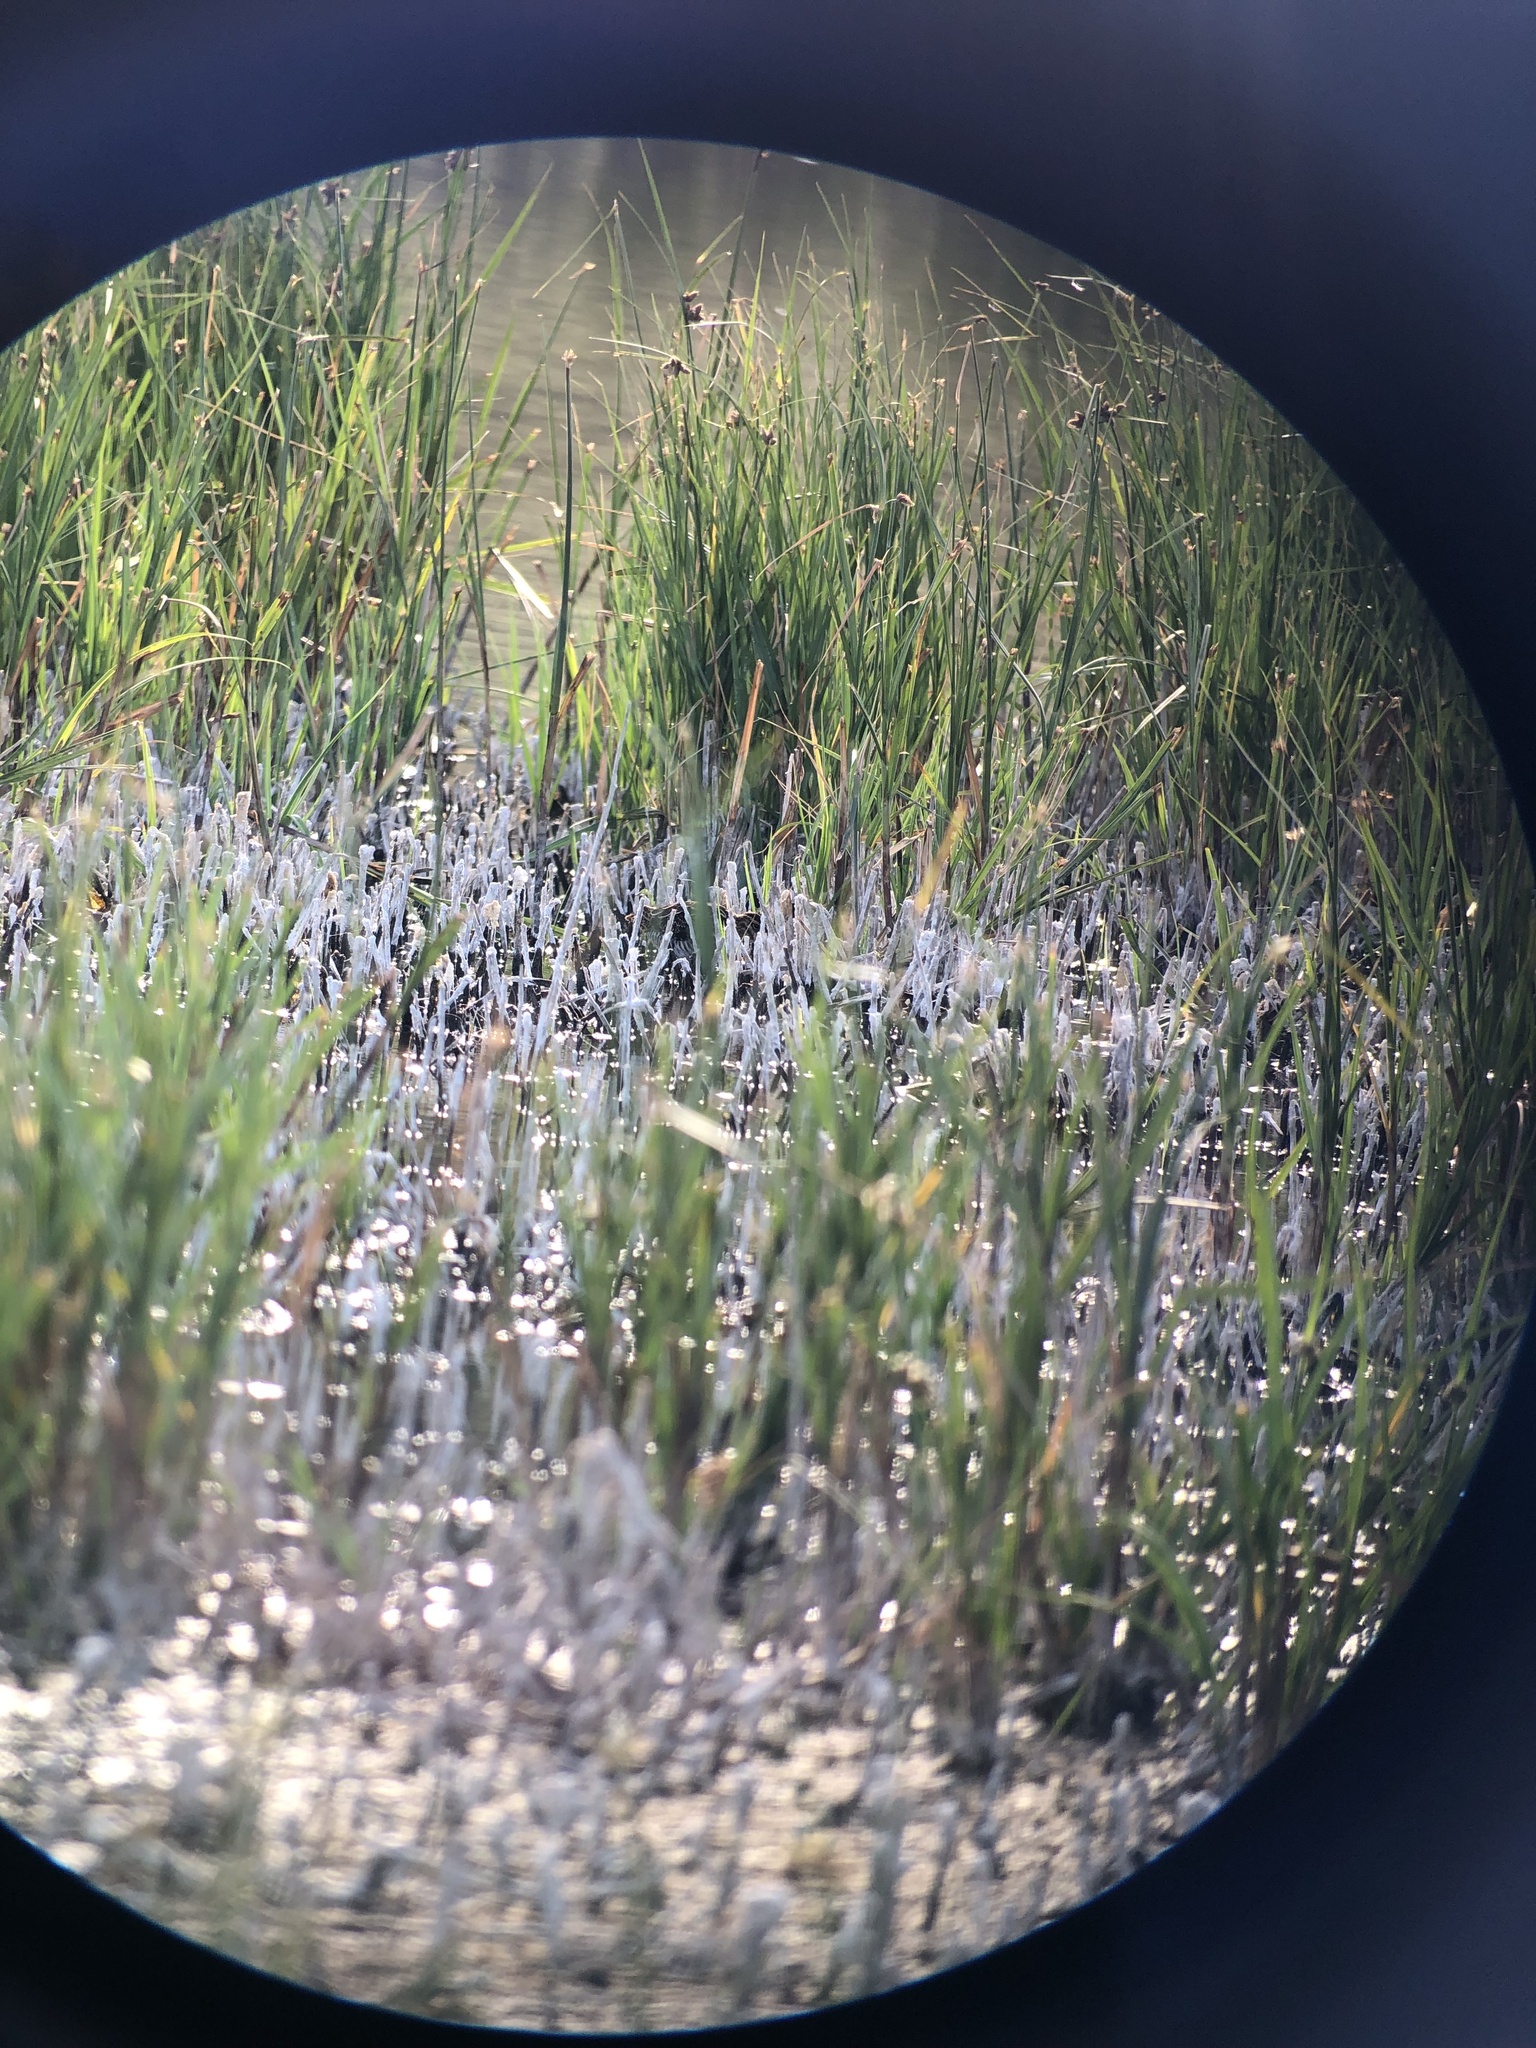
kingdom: Animalia
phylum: Chordata
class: Aves
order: Charadriiformes
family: Scolopacidae
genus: Gallinago
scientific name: Gallinago delicata
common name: Wilson's snipe
